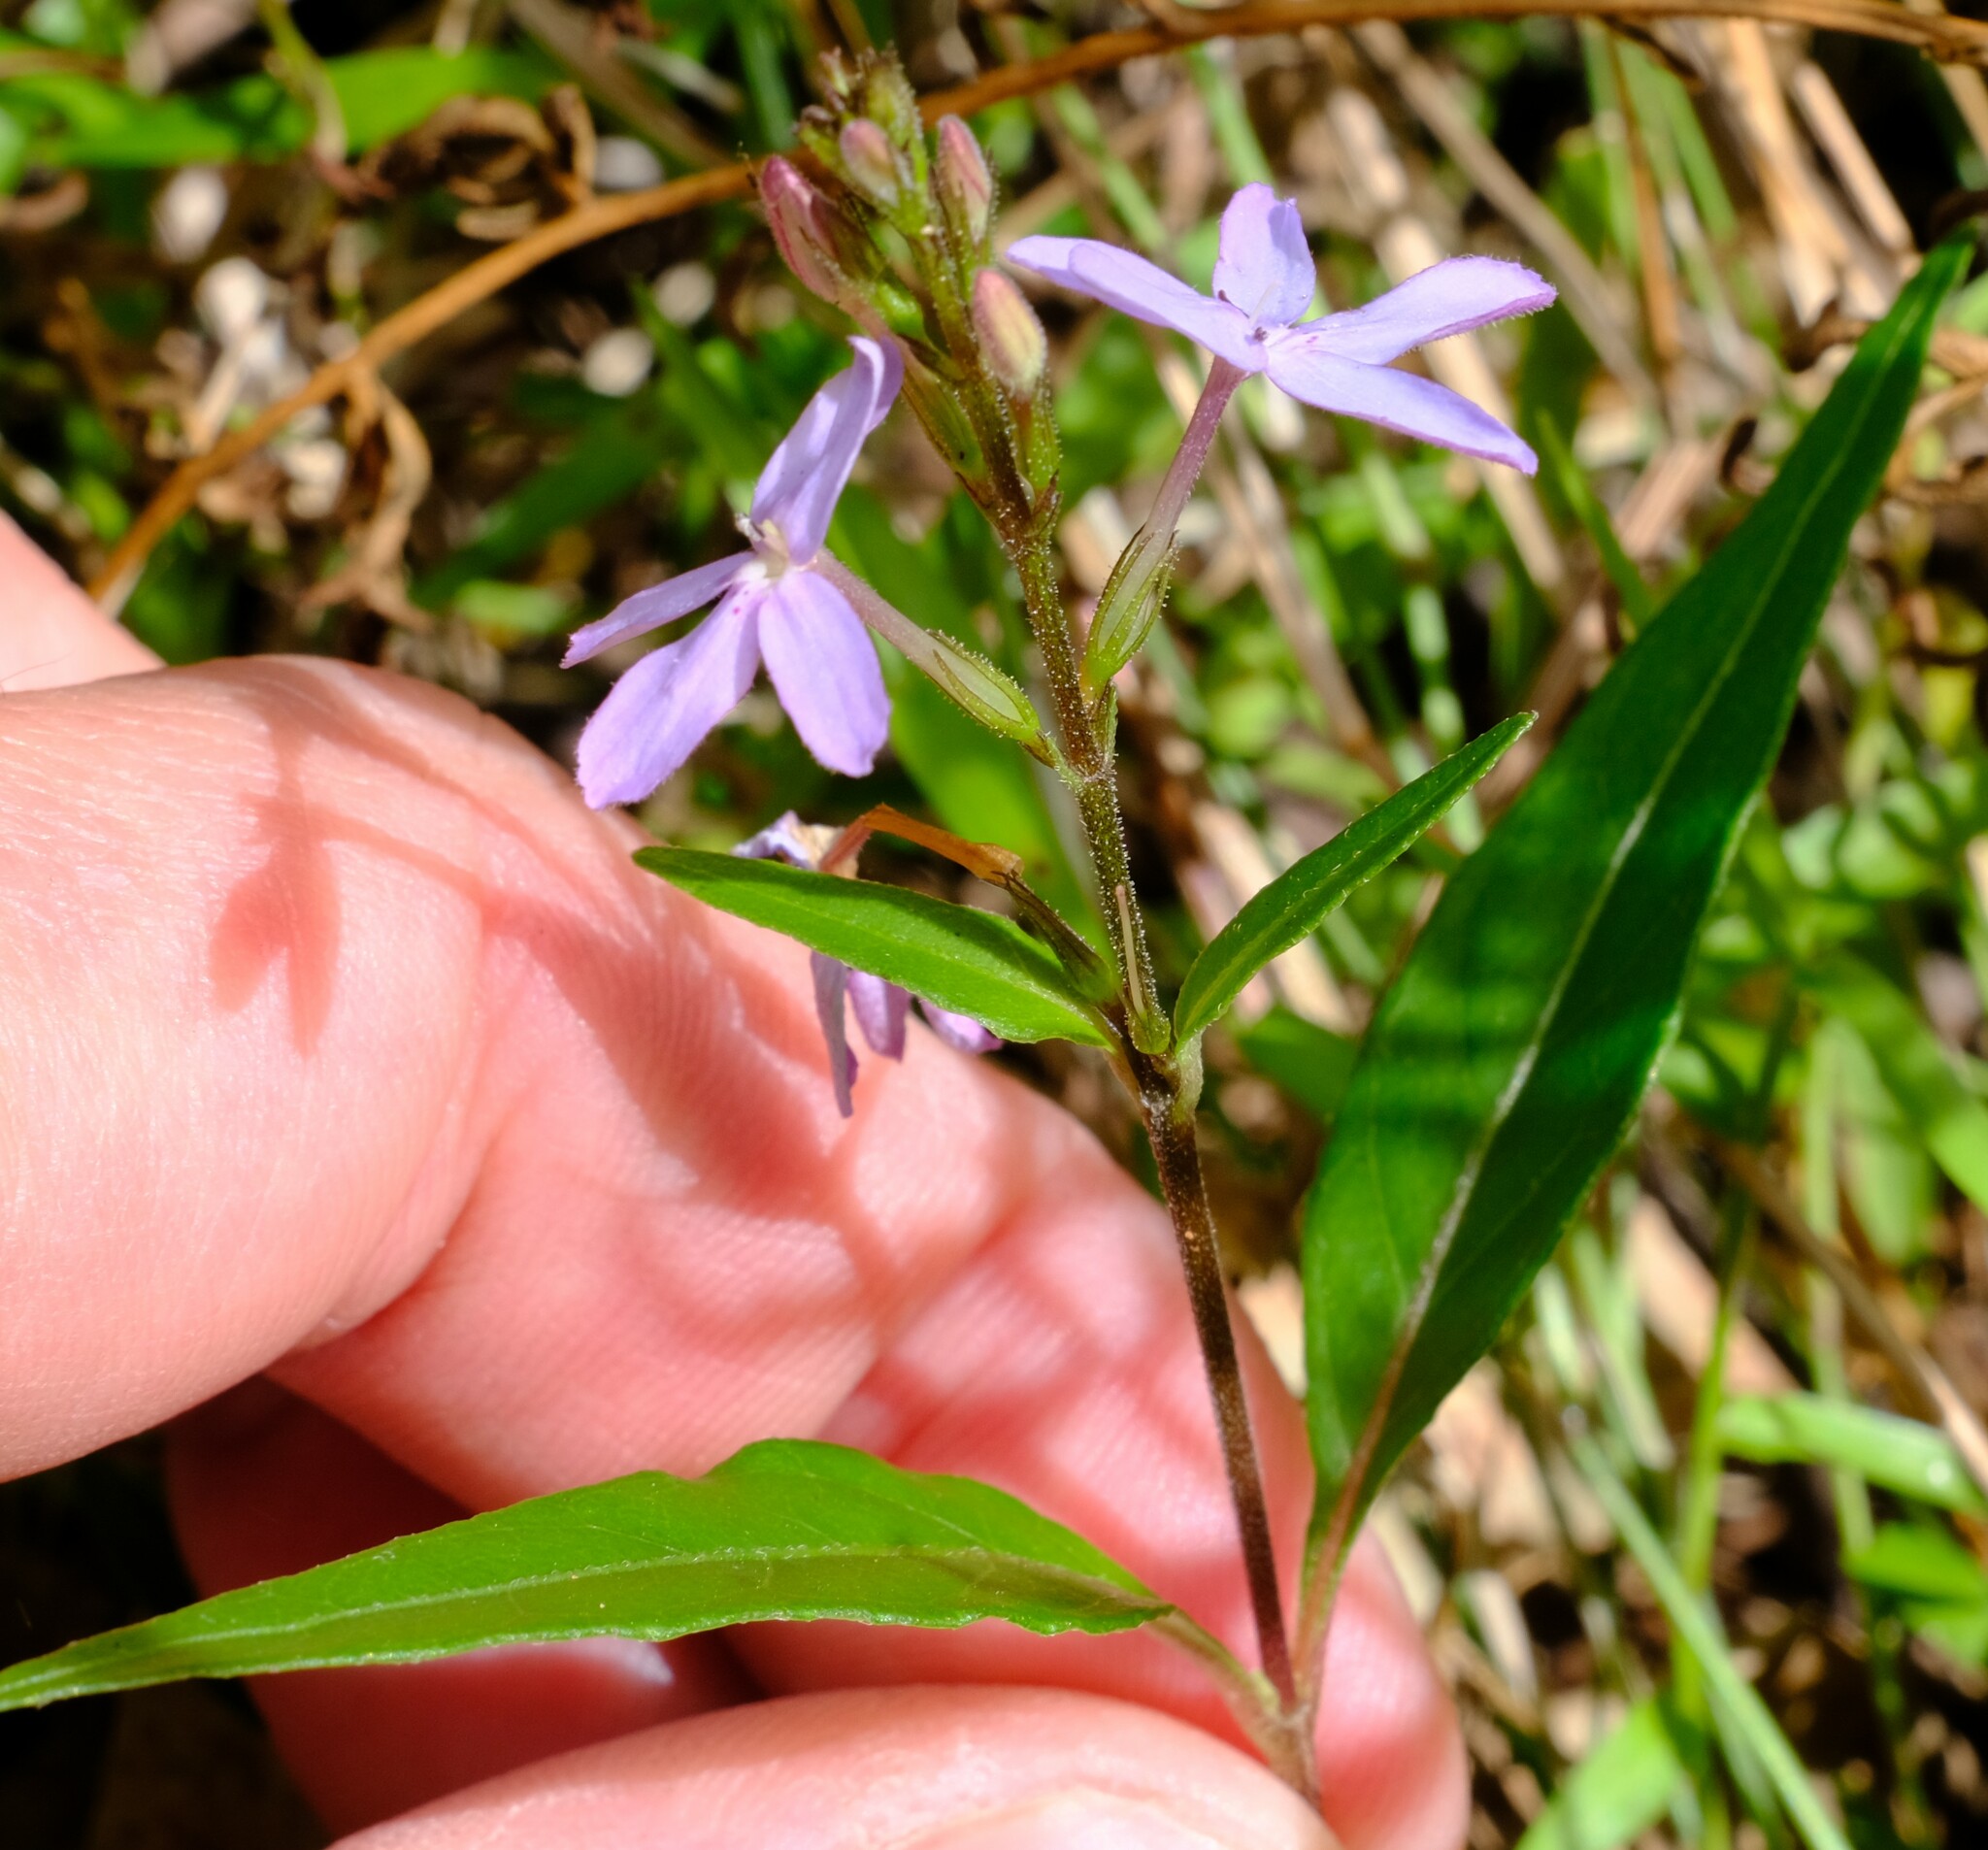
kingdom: Plantae
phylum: Tracheophyta
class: Magnoliopsida
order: Lamiales
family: Acanthaceae
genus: Pseuderanthemum
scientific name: Pseuderanthemum variabile
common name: Night and afternoon
